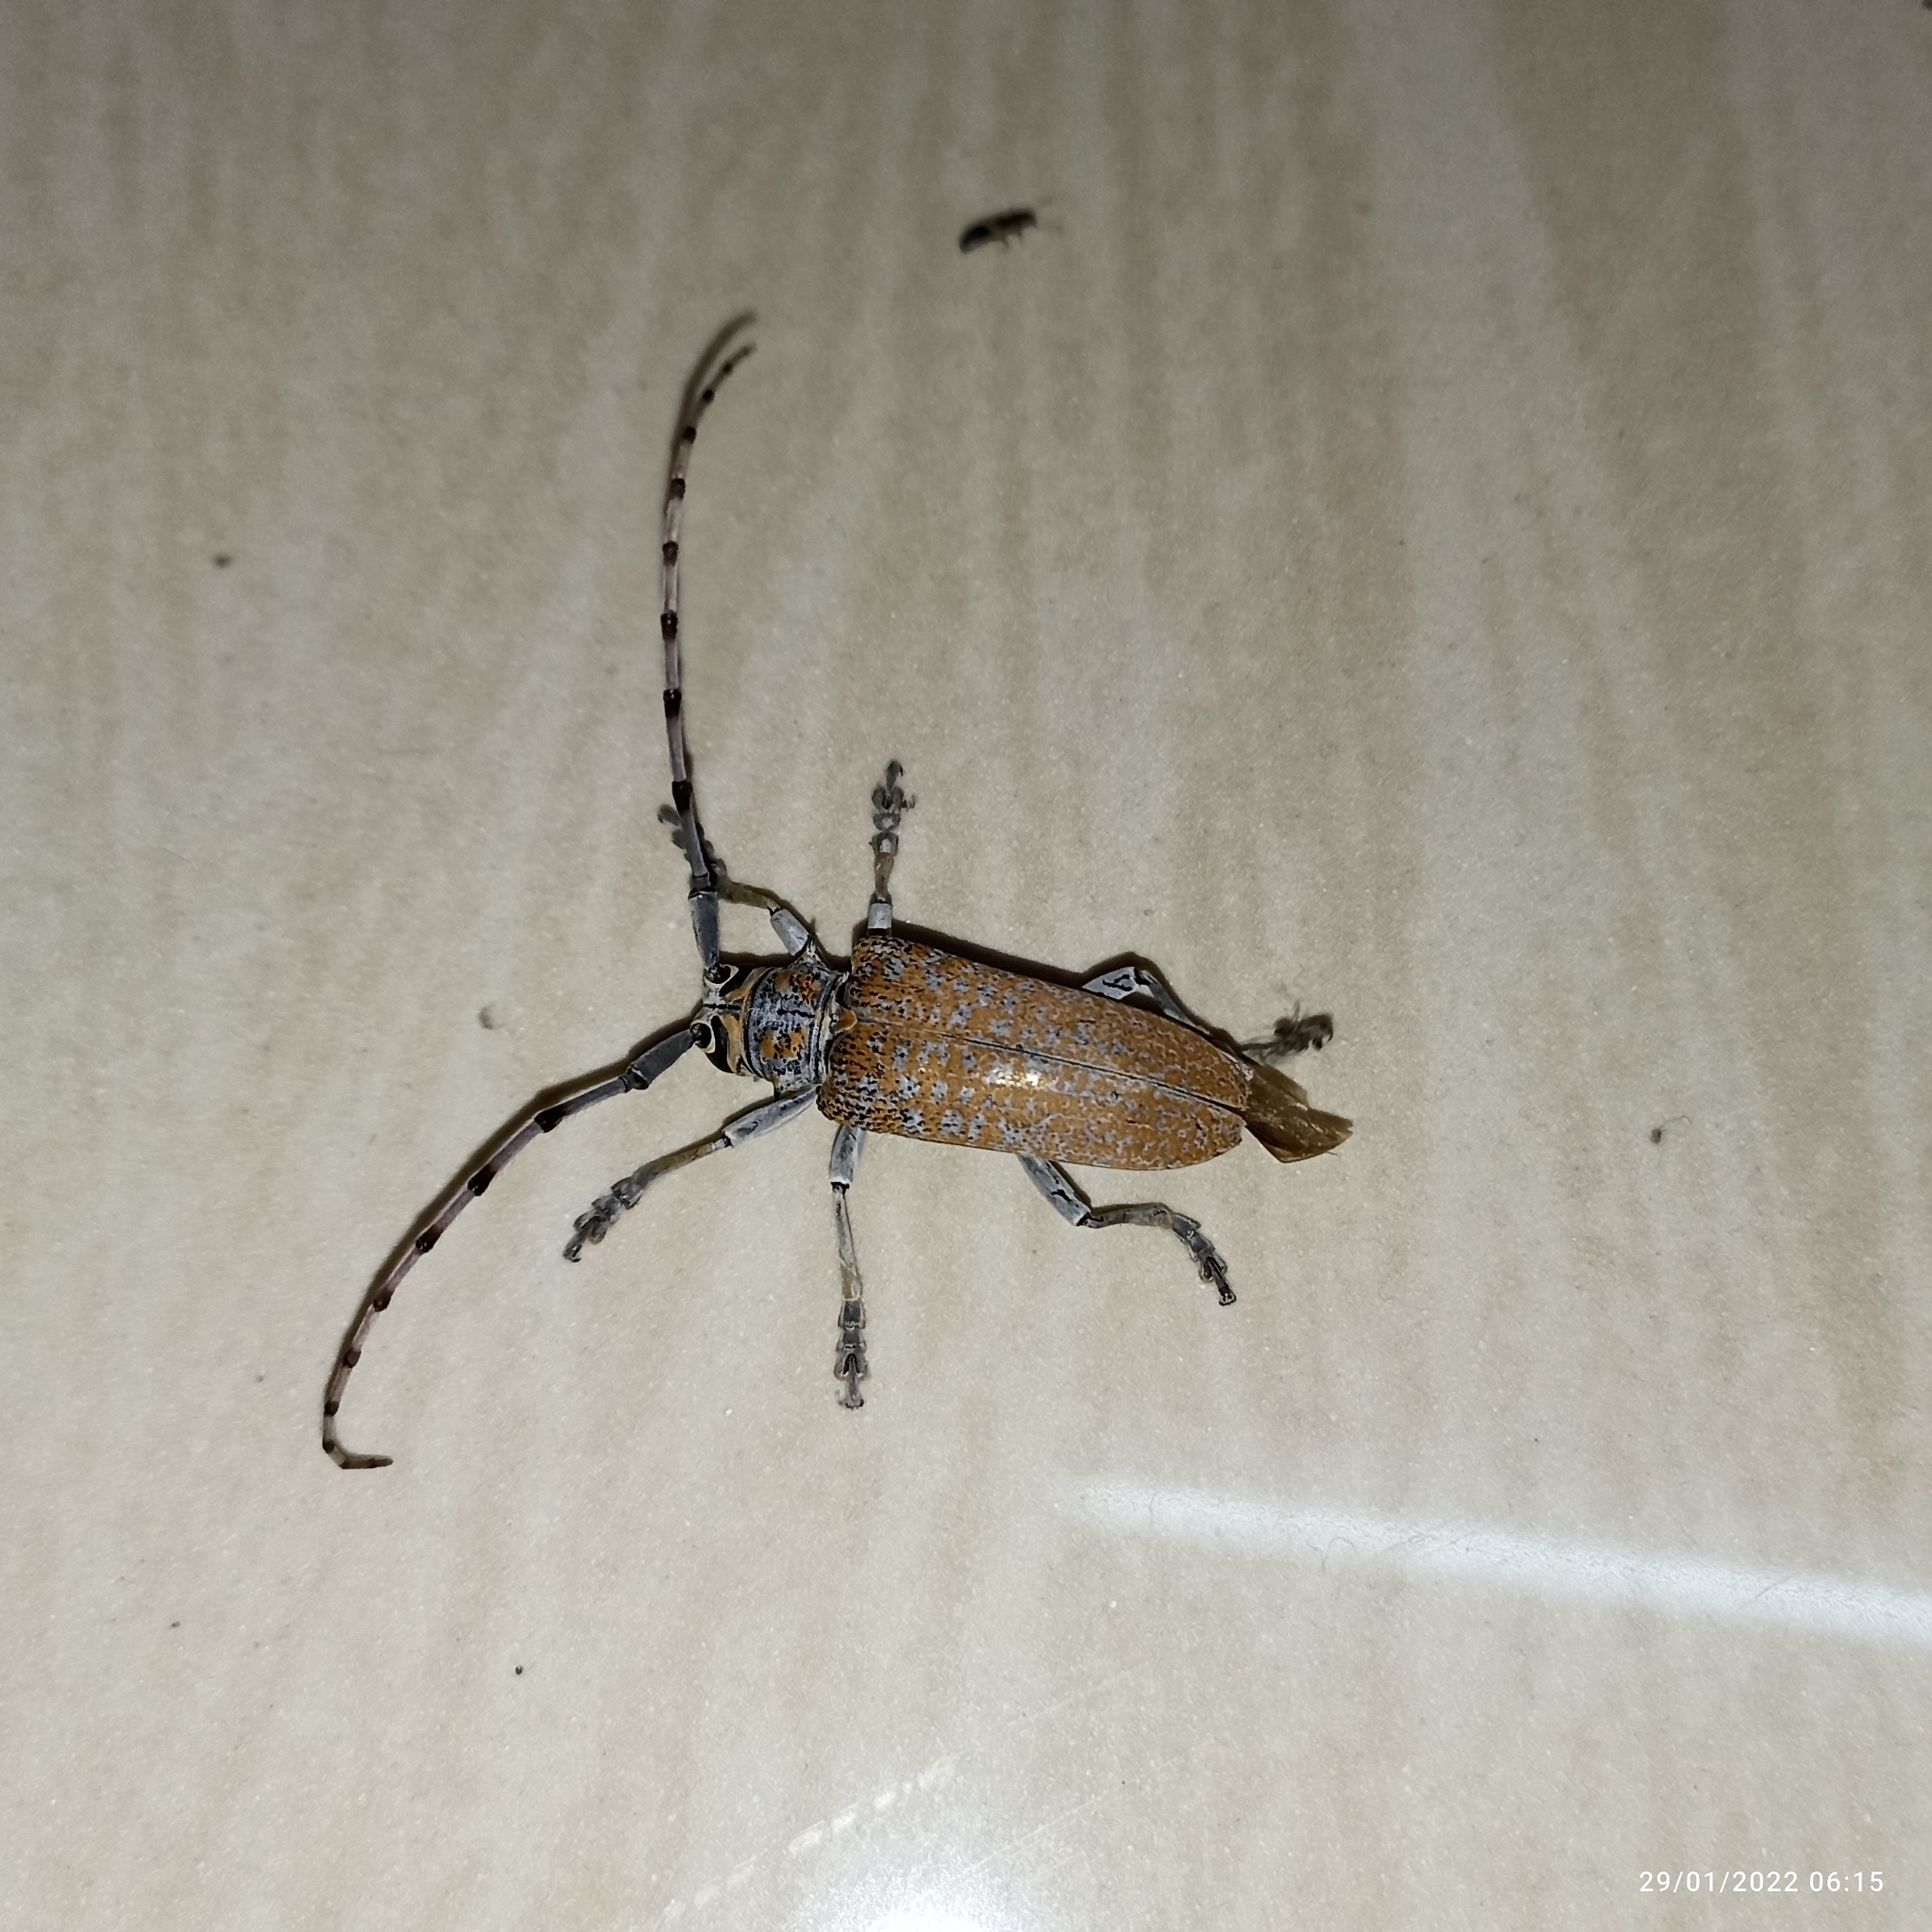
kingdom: Animalia
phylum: Arthropoda
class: Insecta
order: Coleoptera
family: Cerambycidae
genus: Cerosterna
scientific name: Cerosterna scabrator
